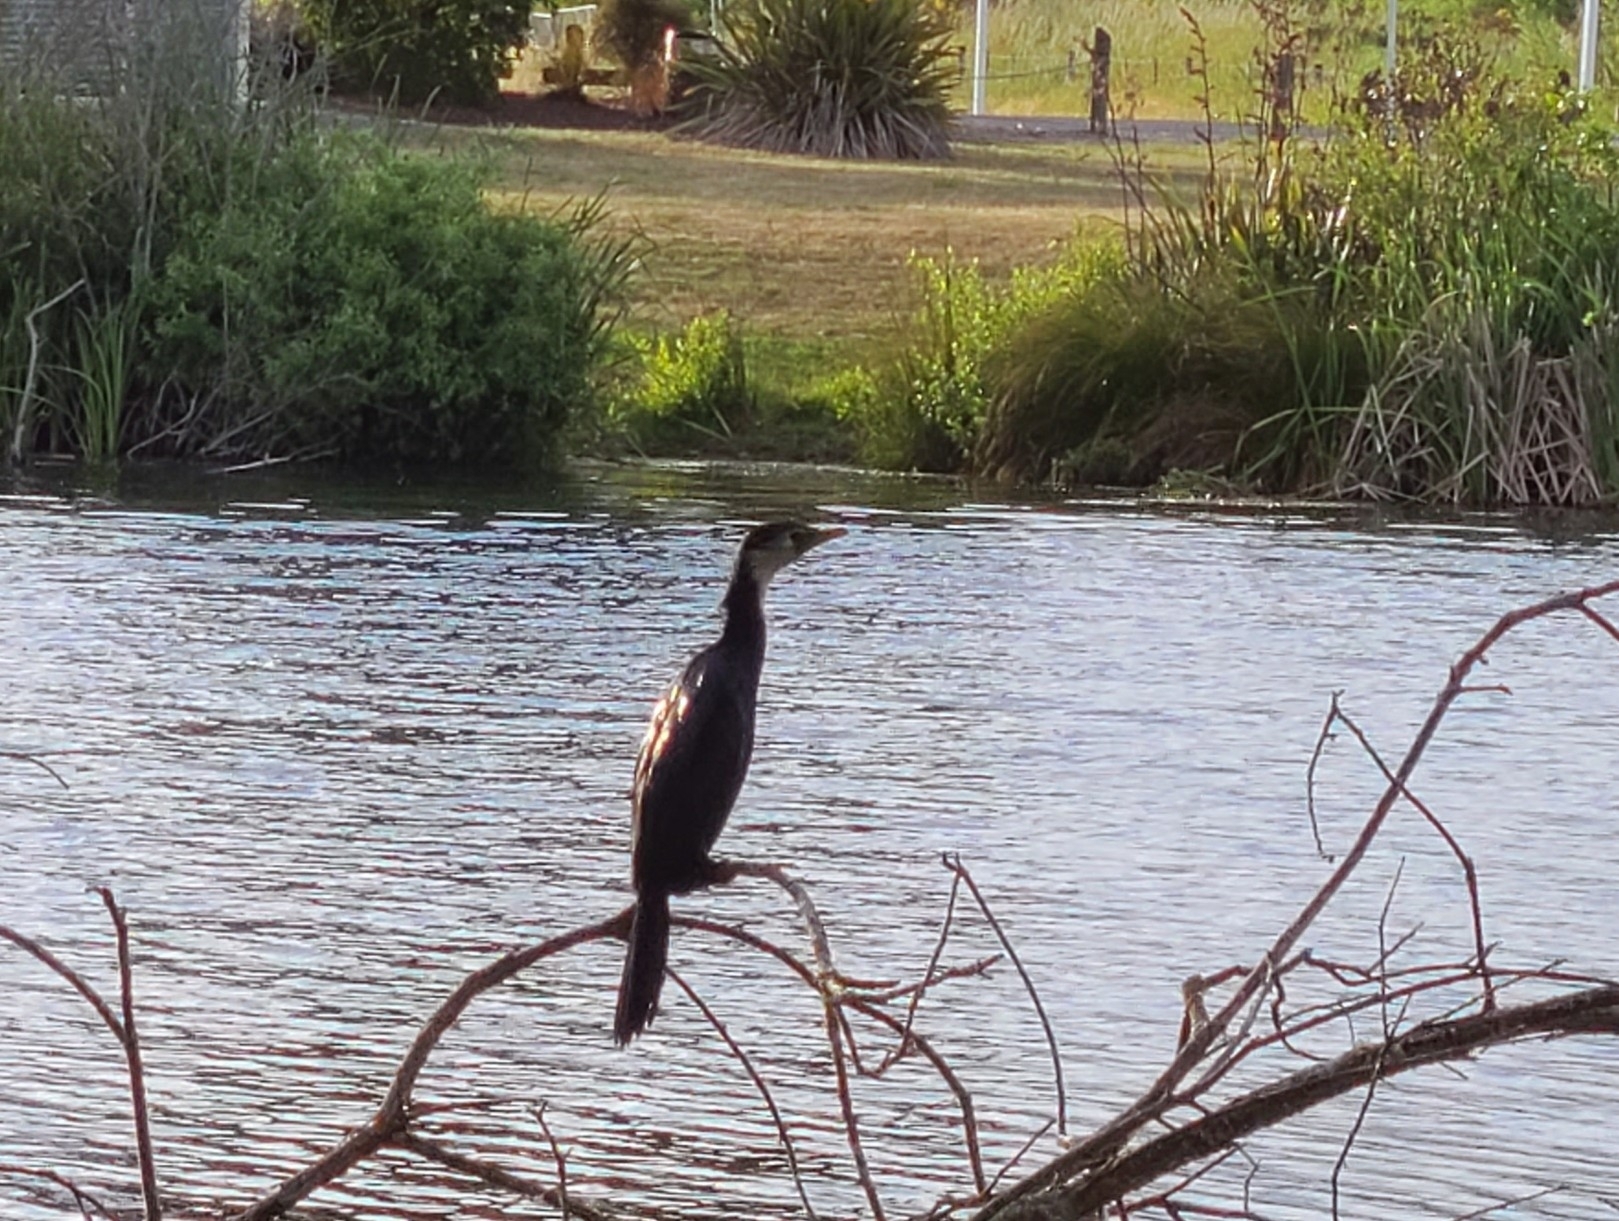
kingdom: Animalia
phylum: Chordata
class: Aves
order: Suliformes
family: Phalacrocoracidae
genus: Microcarbo
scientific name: Microcarbo melanoleucos
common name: Little pied cormorant
